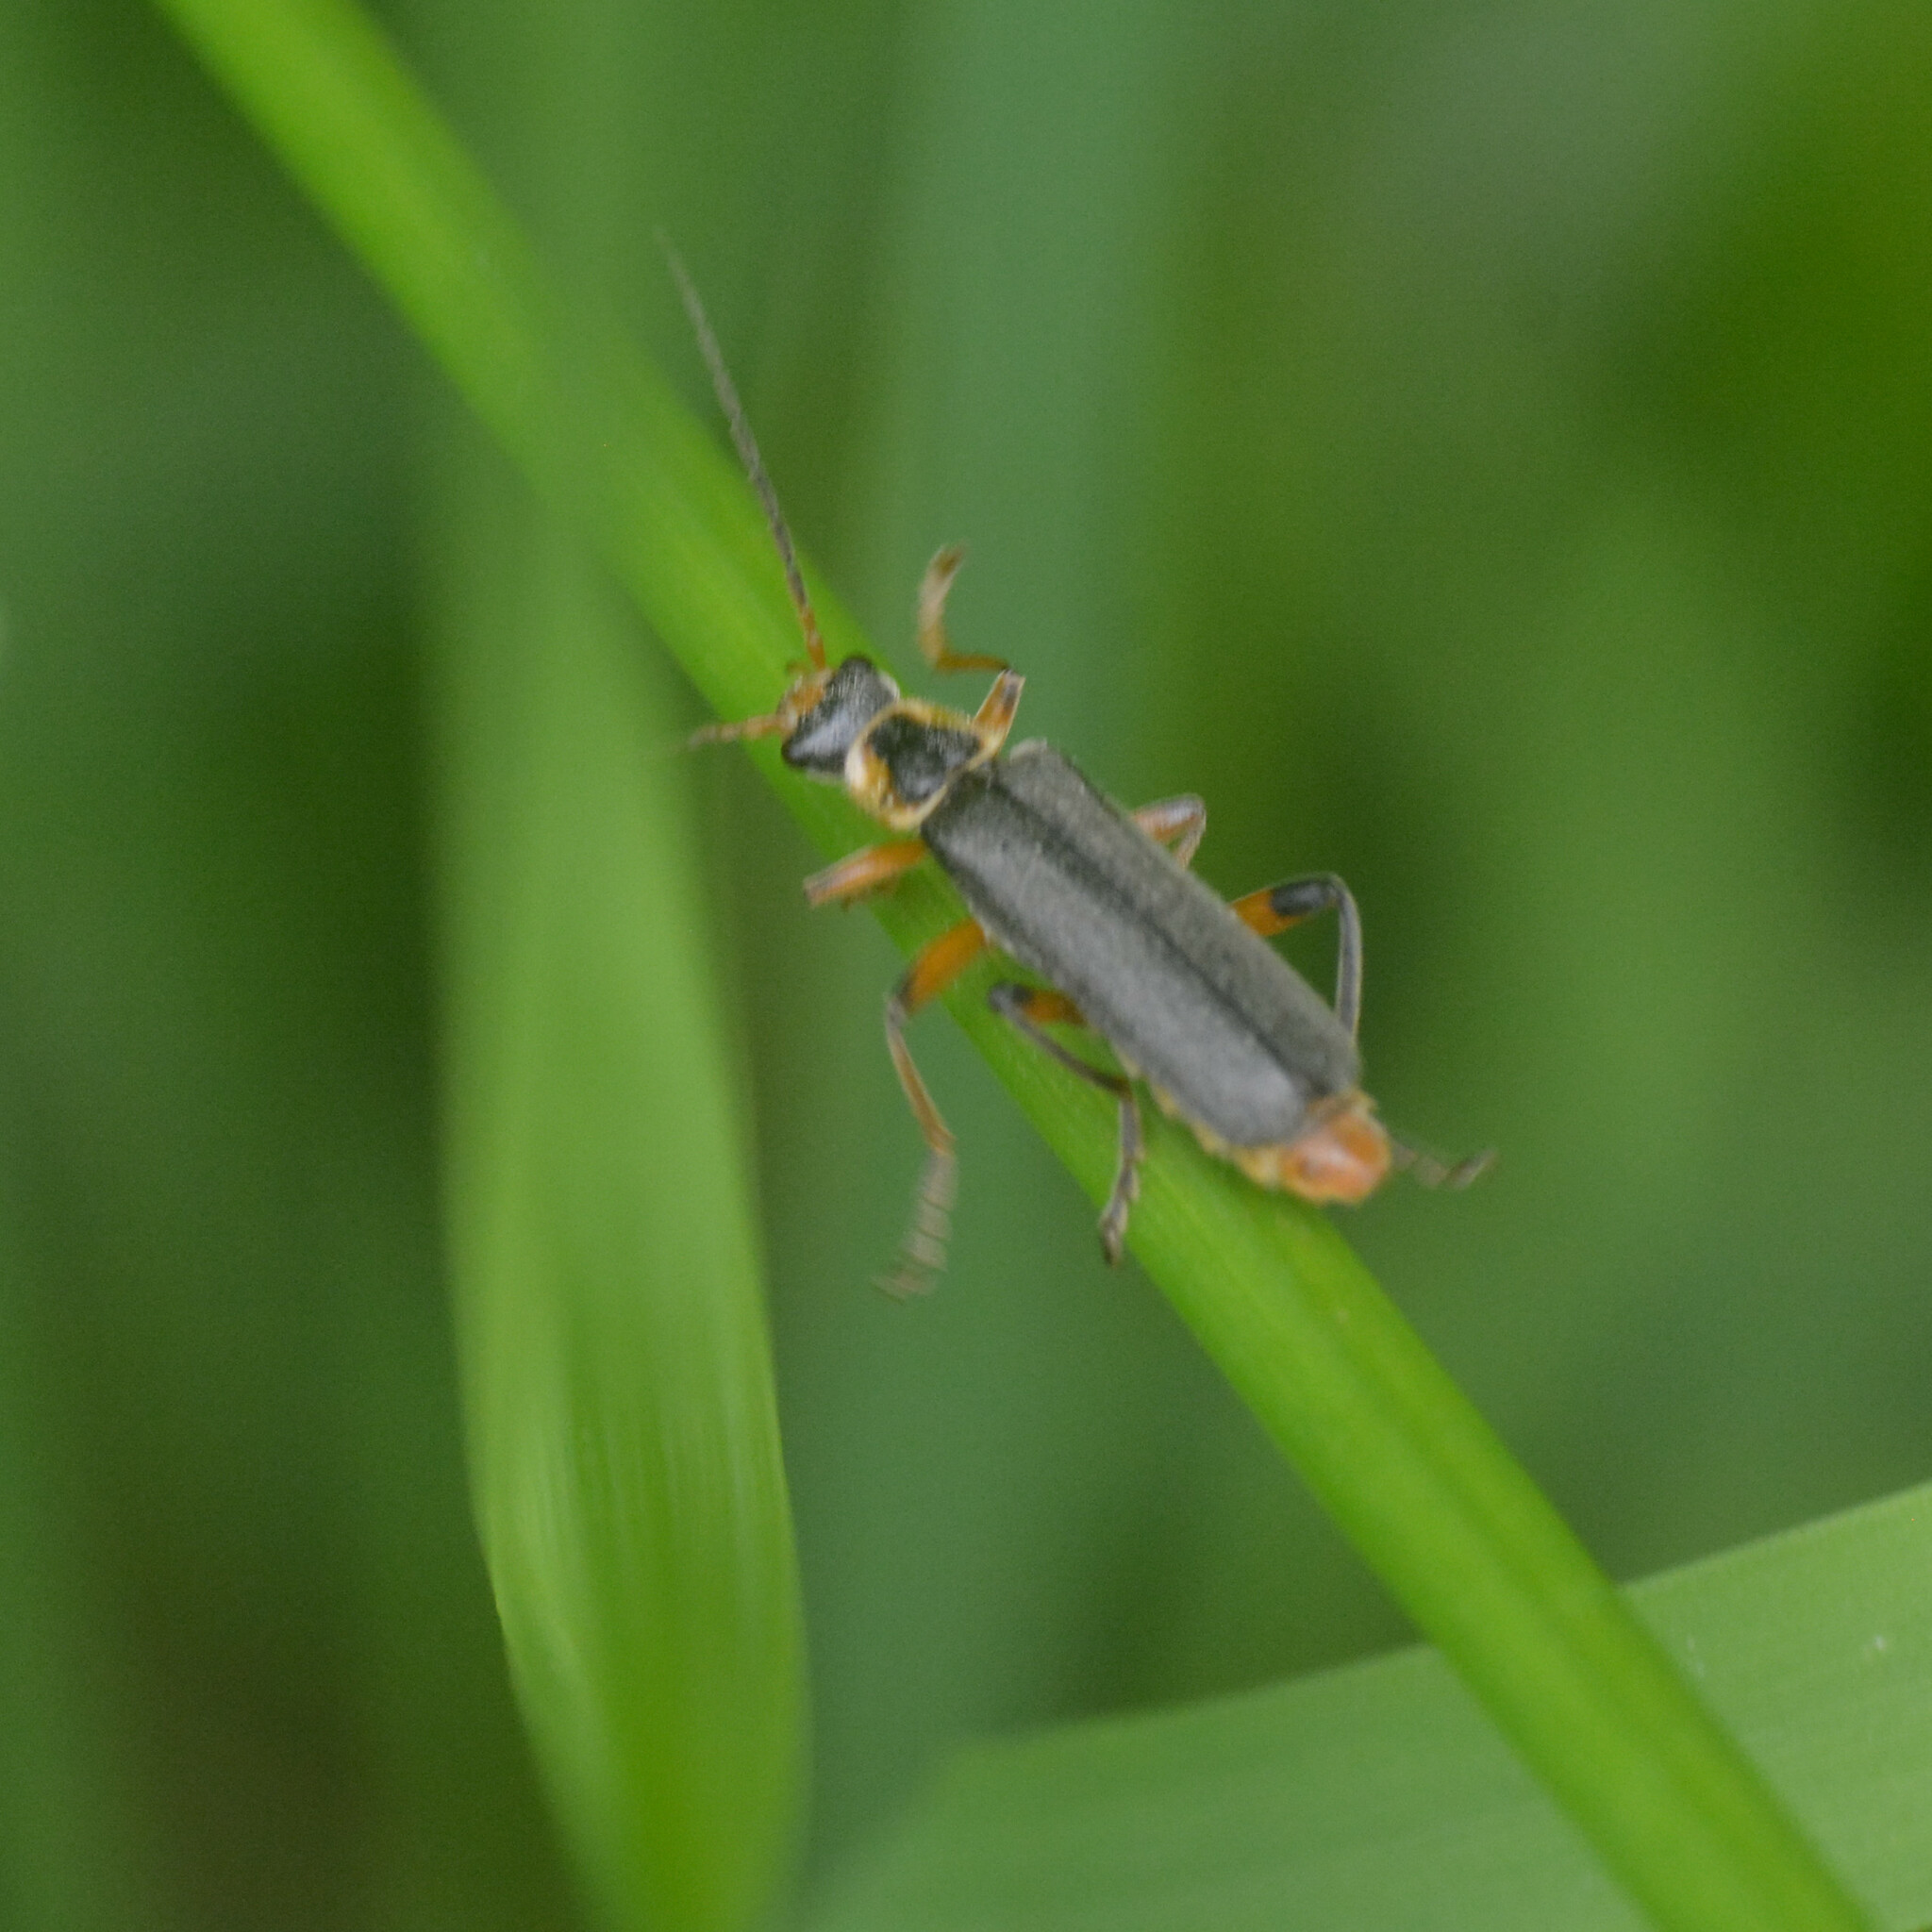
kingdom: Animalia
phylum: Arthropoda
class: Insecta
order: Coleoptera
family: Cantharidae
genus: Cantharis
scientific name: Cantharis nigricans
